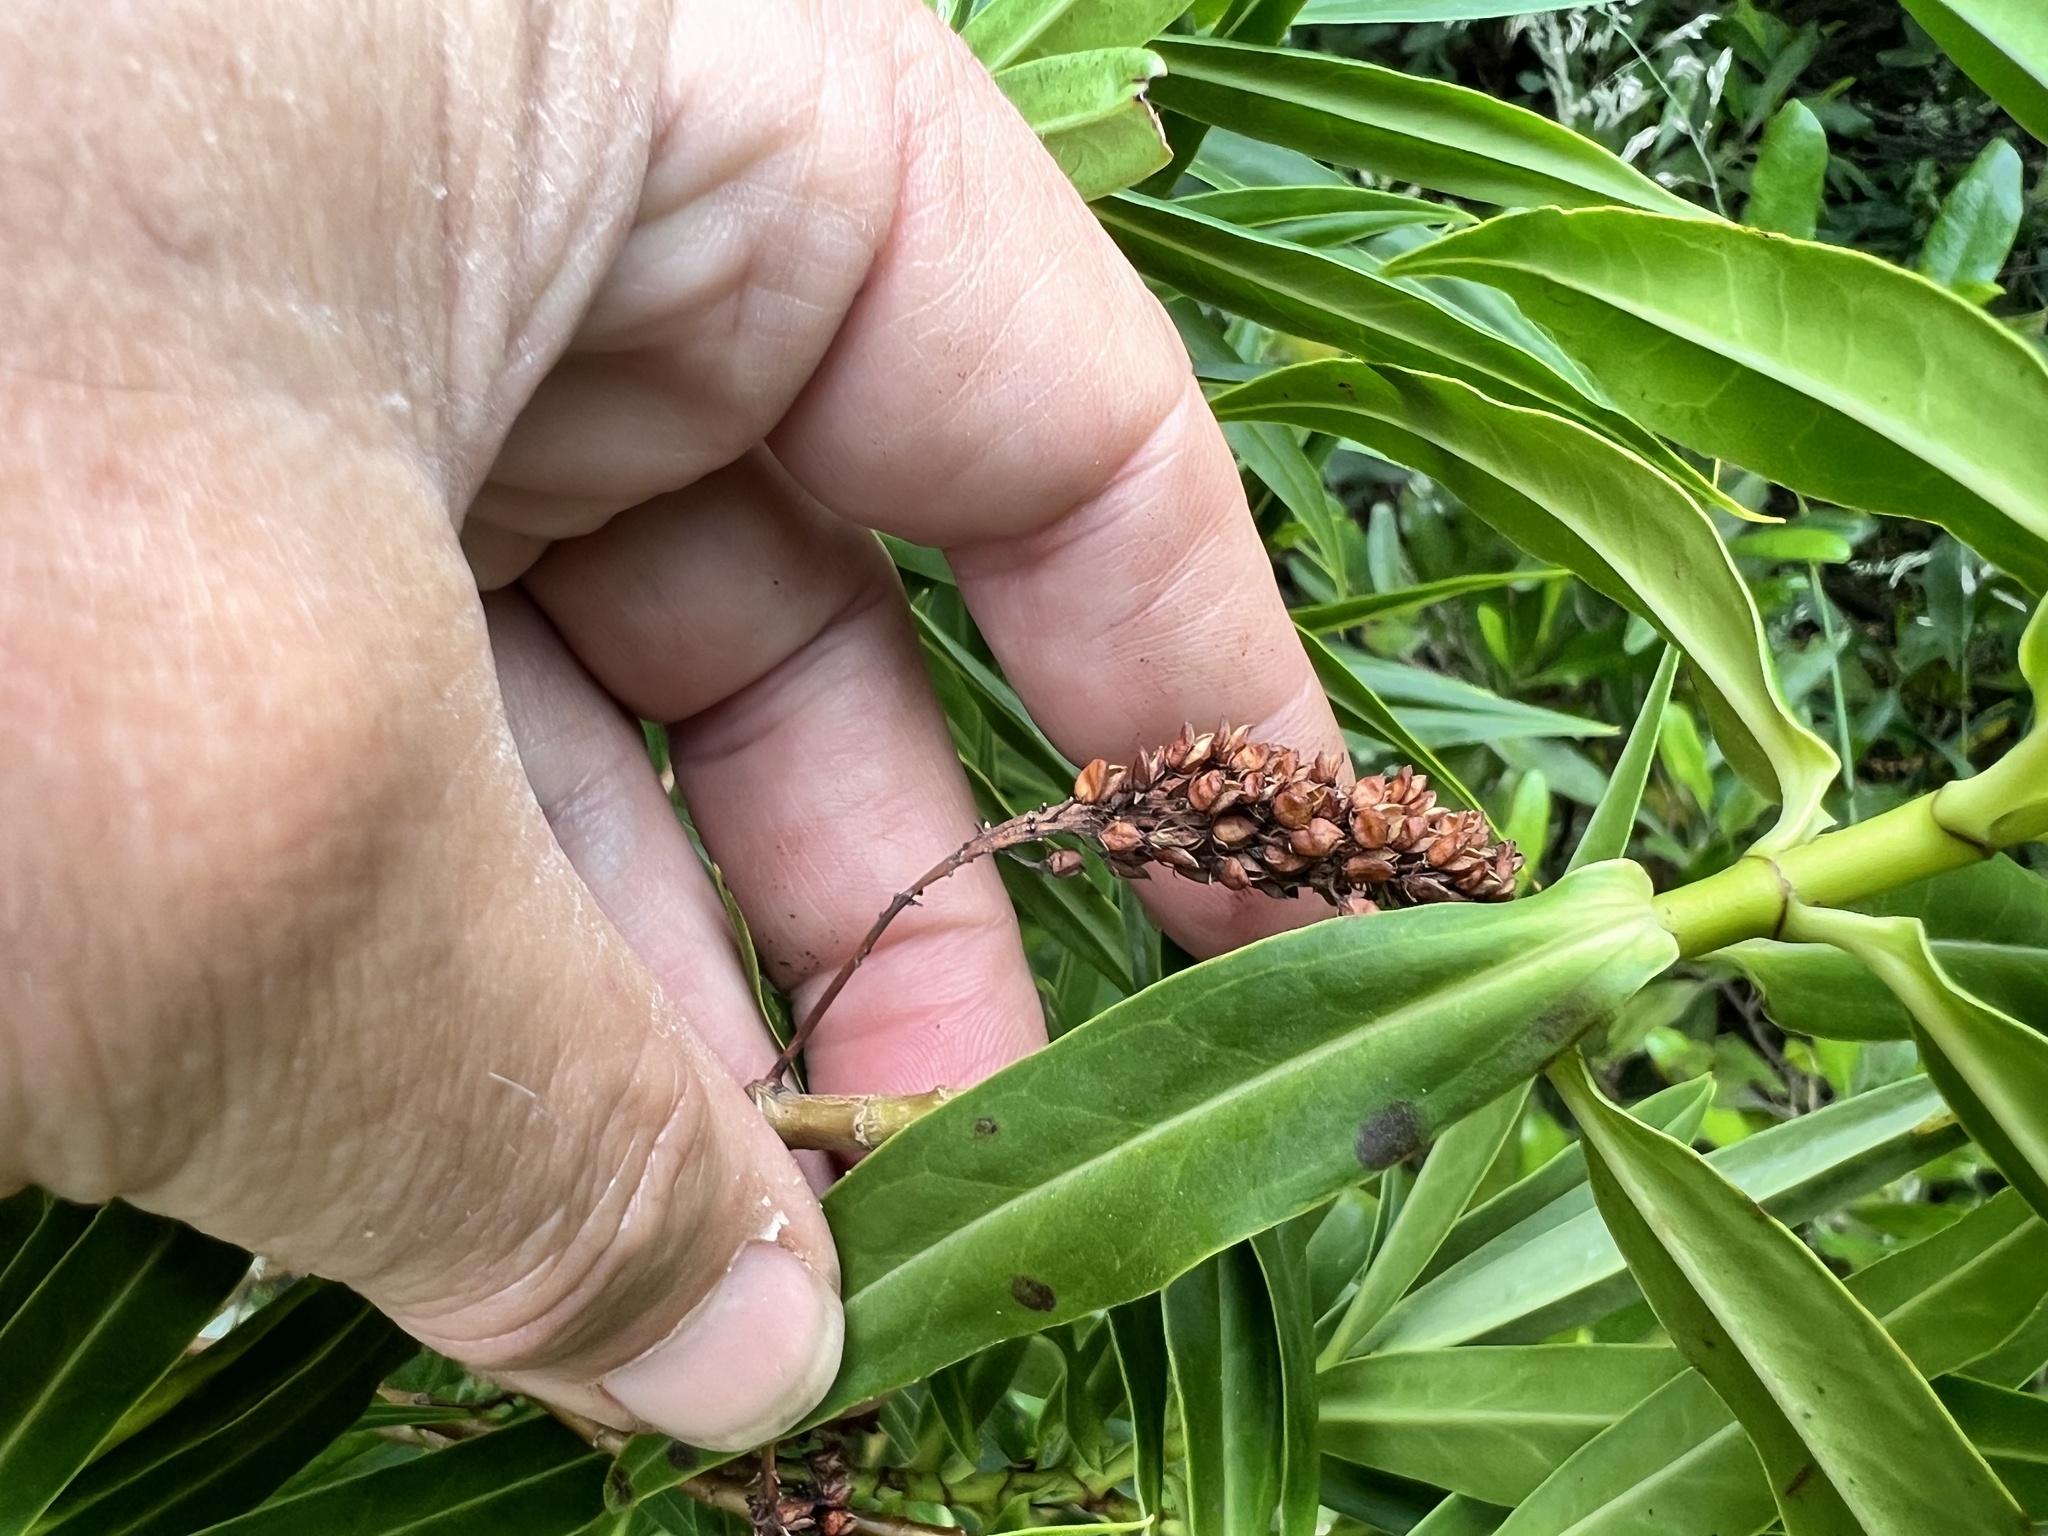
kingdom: Plantae
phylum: Tracheophyta
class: Magnoliopsida
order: Lamiales
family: Plantaginaceae
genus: Veronica
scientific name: Veronica salicifolia
